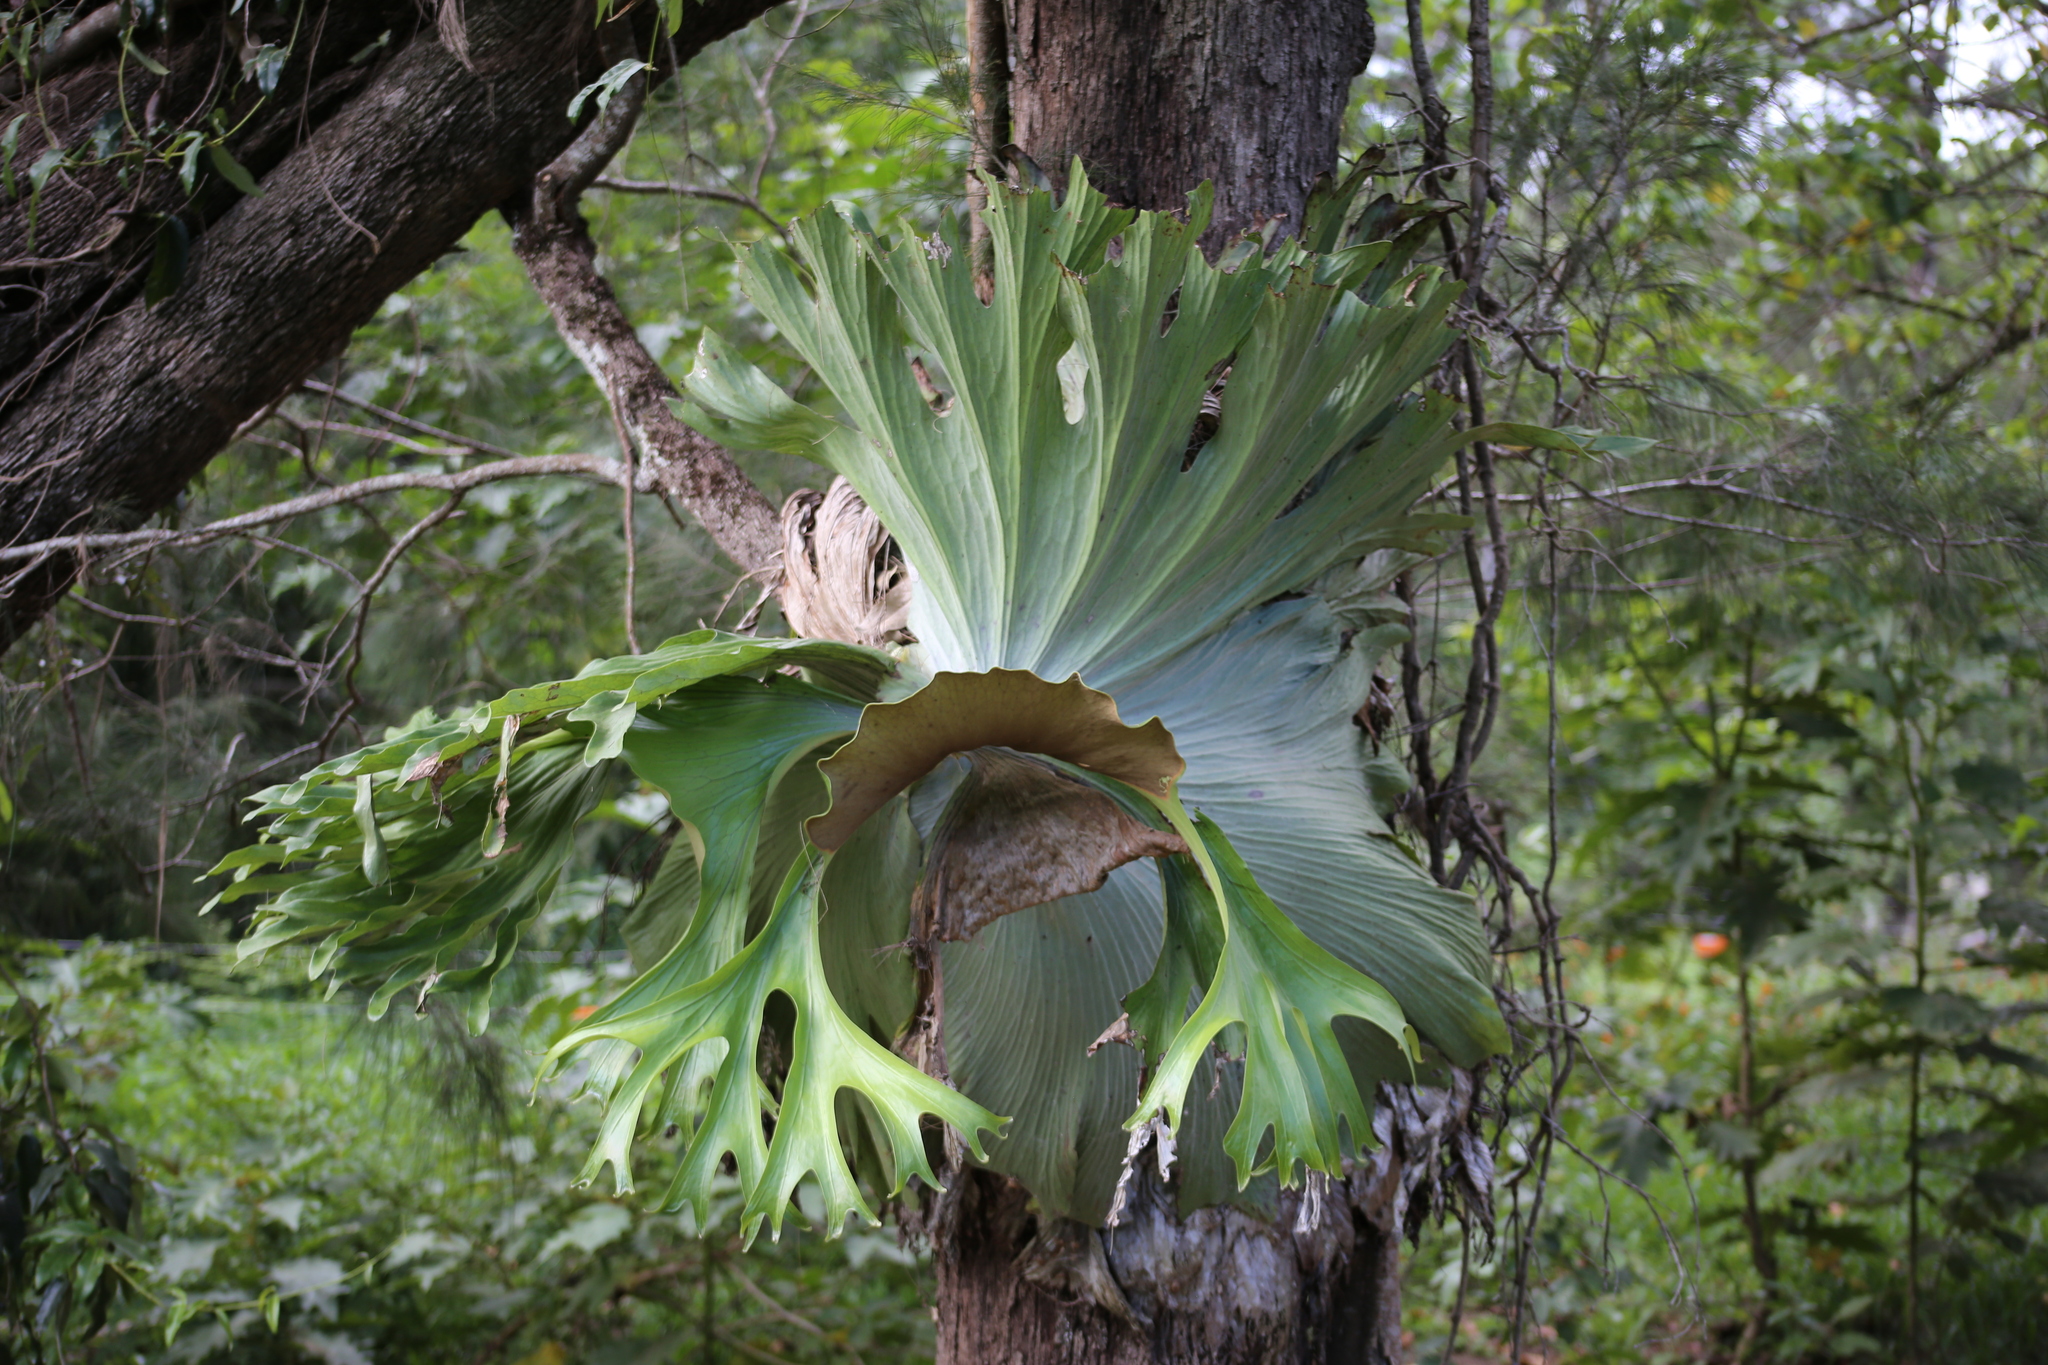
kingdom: Plantae
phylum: Tracheophyta
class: Polypodiopsida
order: Polypodiales
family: Polypodiaceae
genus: Platycerium
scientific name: Platycerium superbum
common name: Staghorn fern
